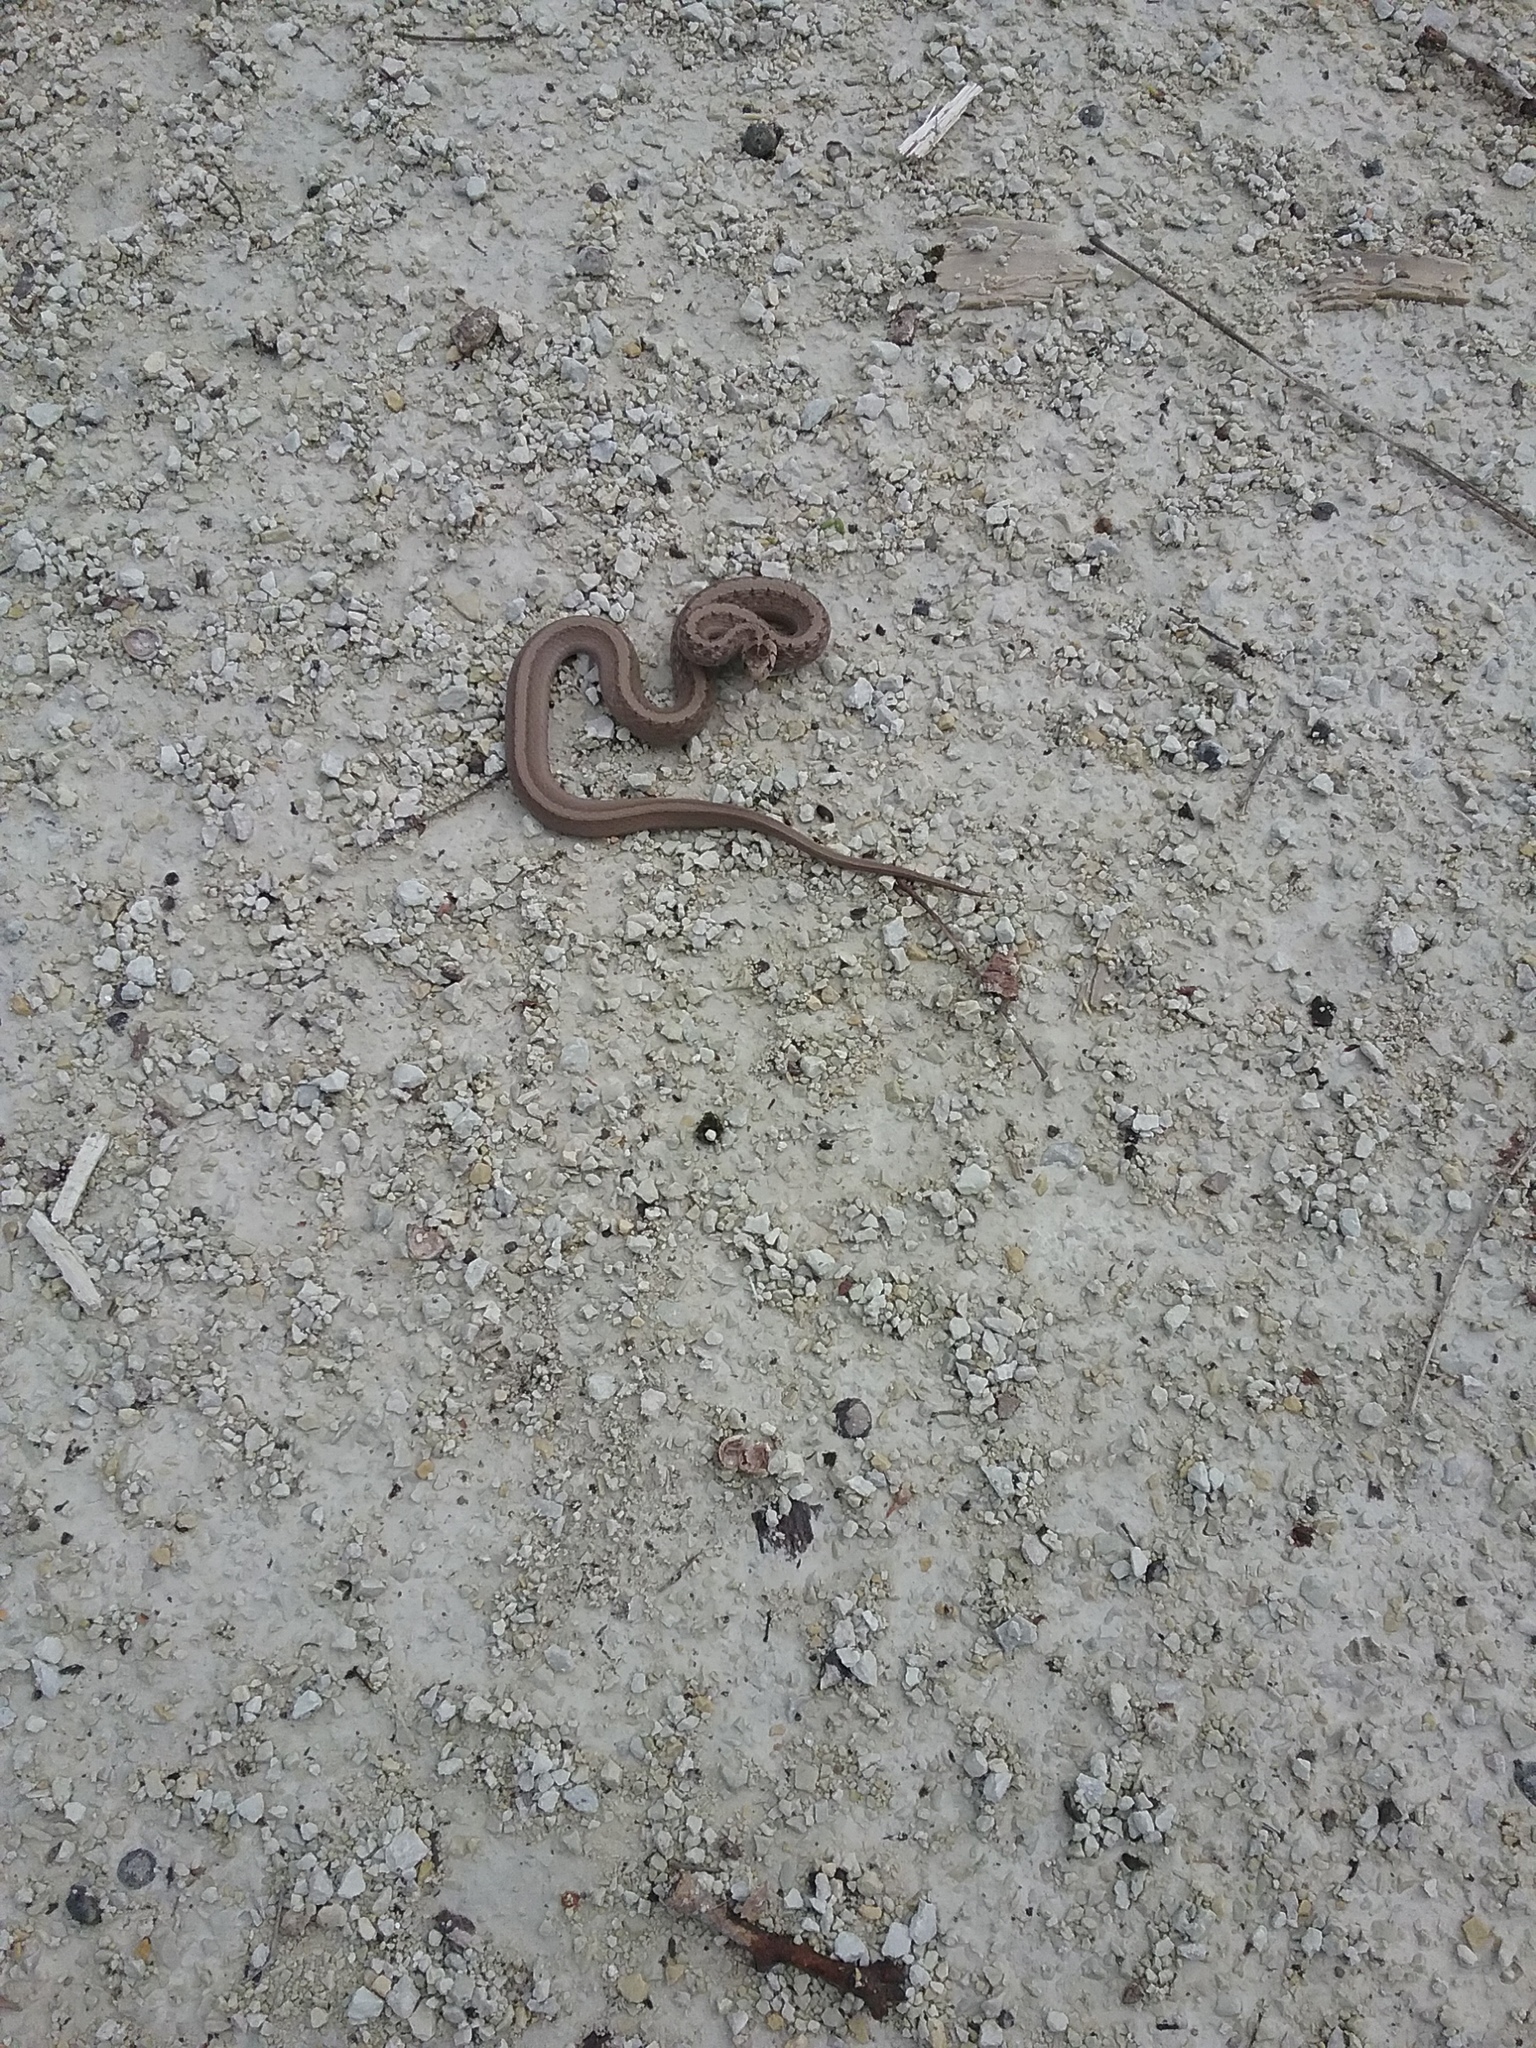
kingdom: Animalia
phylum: Chordata
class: Squamata
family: Colubridae
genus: Storeria
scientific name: Storeria dekayi
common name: (dekay’s) brown snake
